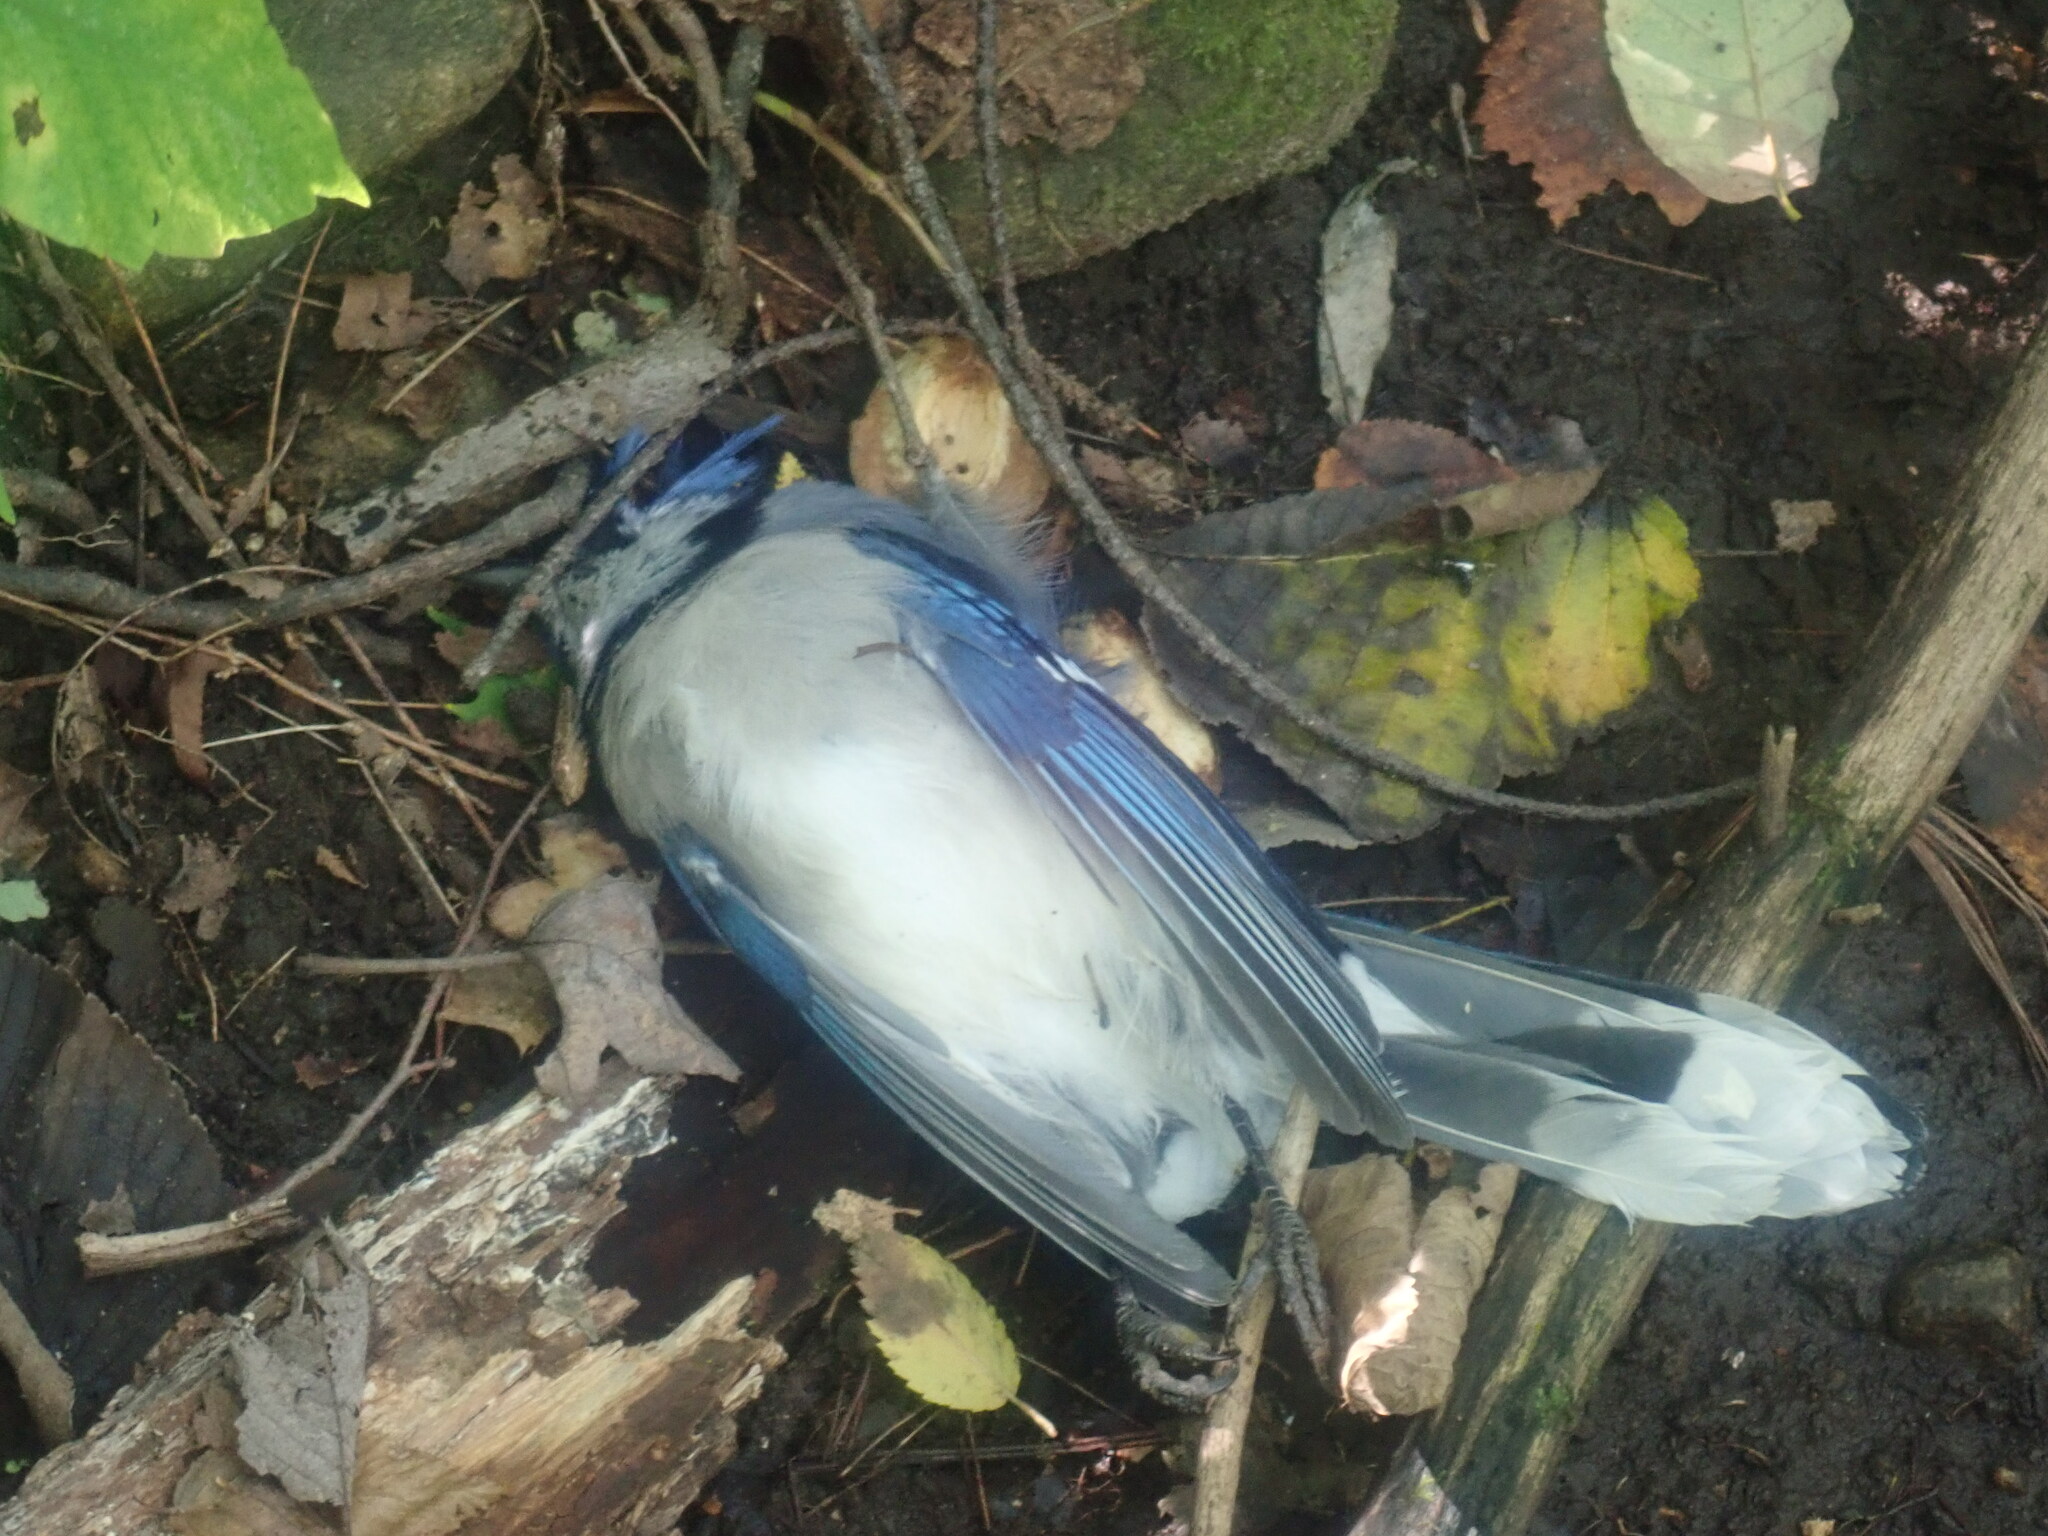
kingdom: Animalia
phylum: Chordata
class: Aves
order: Passeriformes
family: Corvidae
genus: Cyanocitta
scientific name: Cyanocitta cristata
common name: Blue jay
